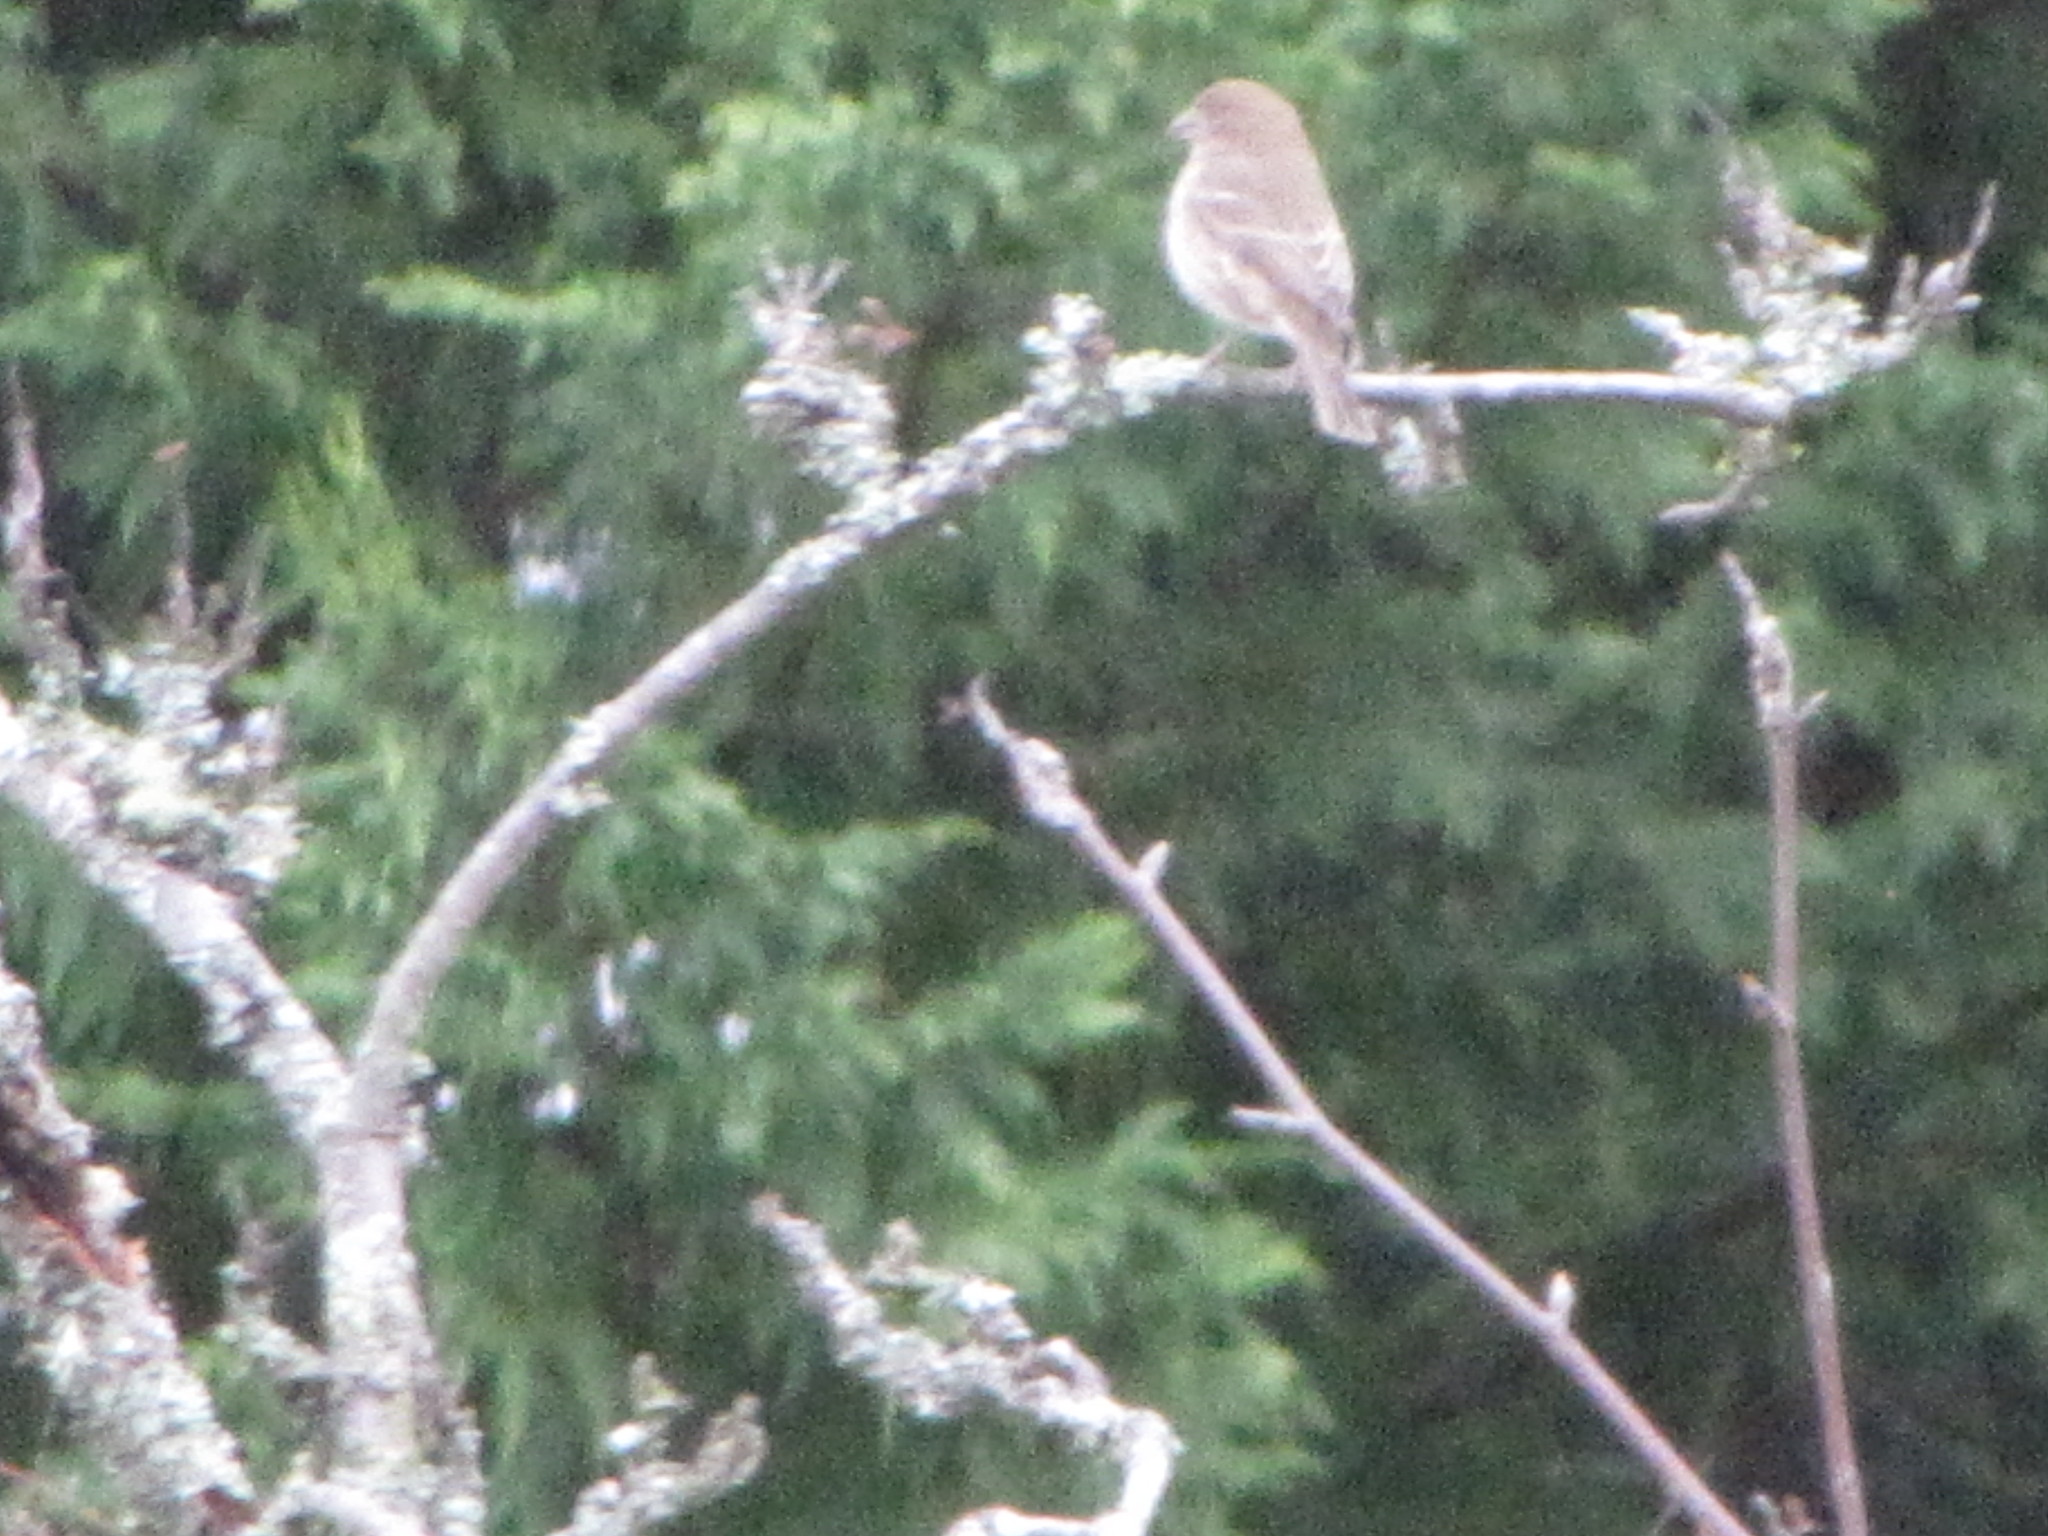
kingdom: Animalia
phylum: Chordata
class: Aves
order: Passeriformes
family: Fringillidae
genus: Haemorhous
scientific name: Haemorhous mexicanus
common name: House finch
